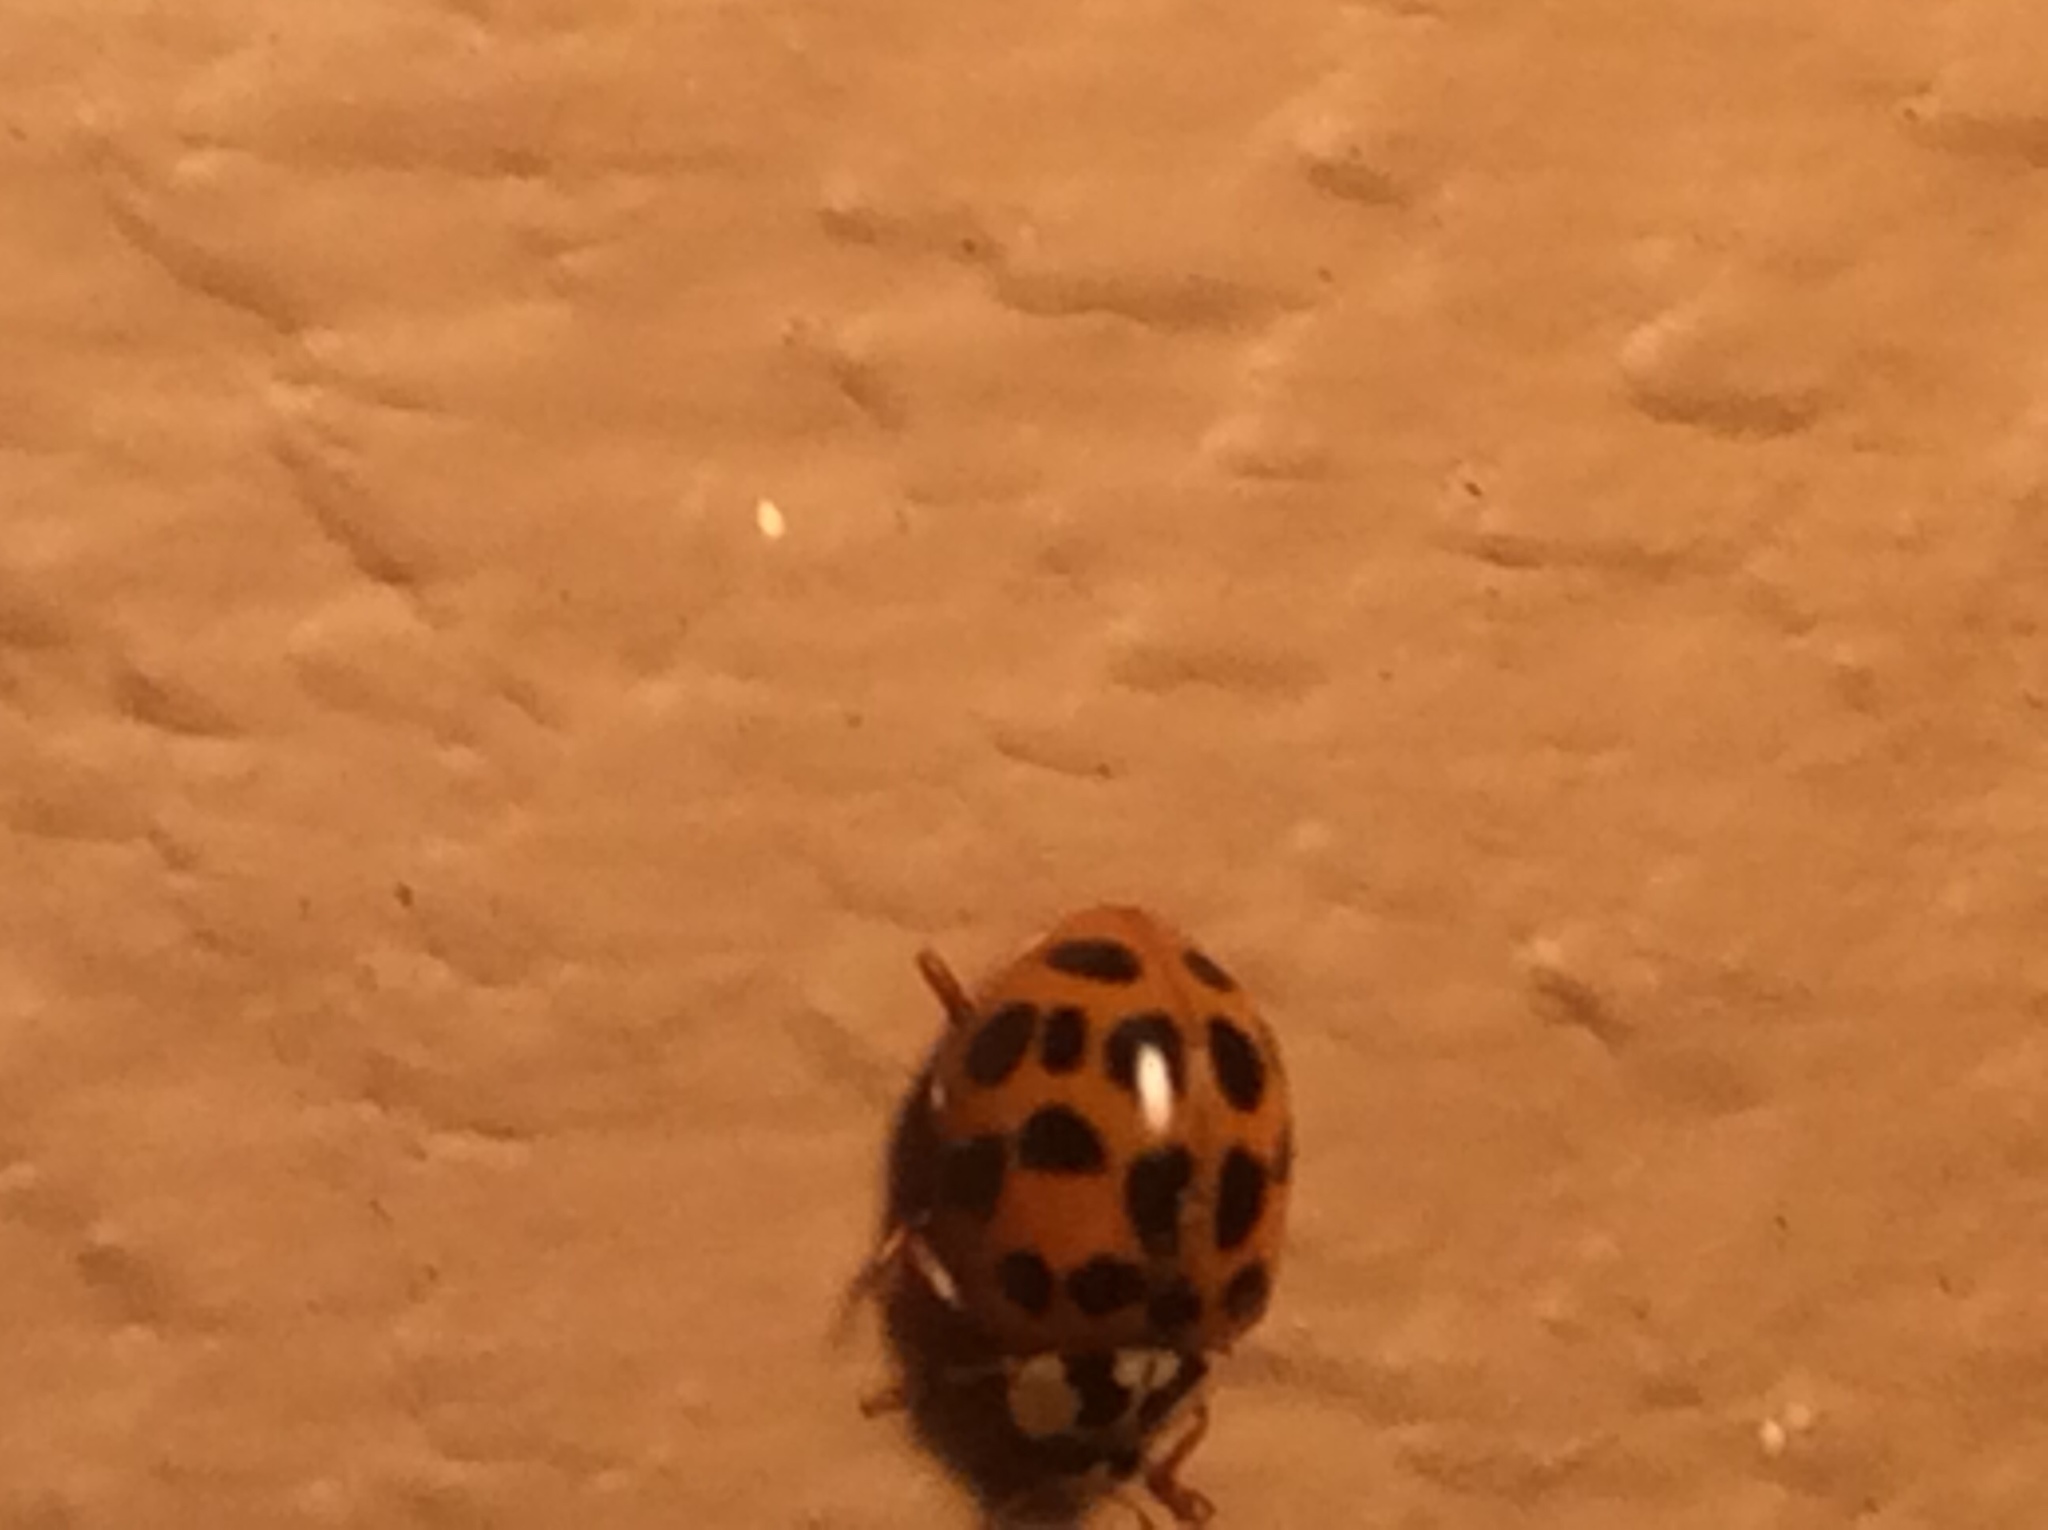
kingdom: Animalia
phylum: Arthropoda
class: Insecta
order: Coleoptera
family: Coccinellidae
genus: Harmonia
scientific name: Harmonia axyridis
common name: Harlequin ladybird
